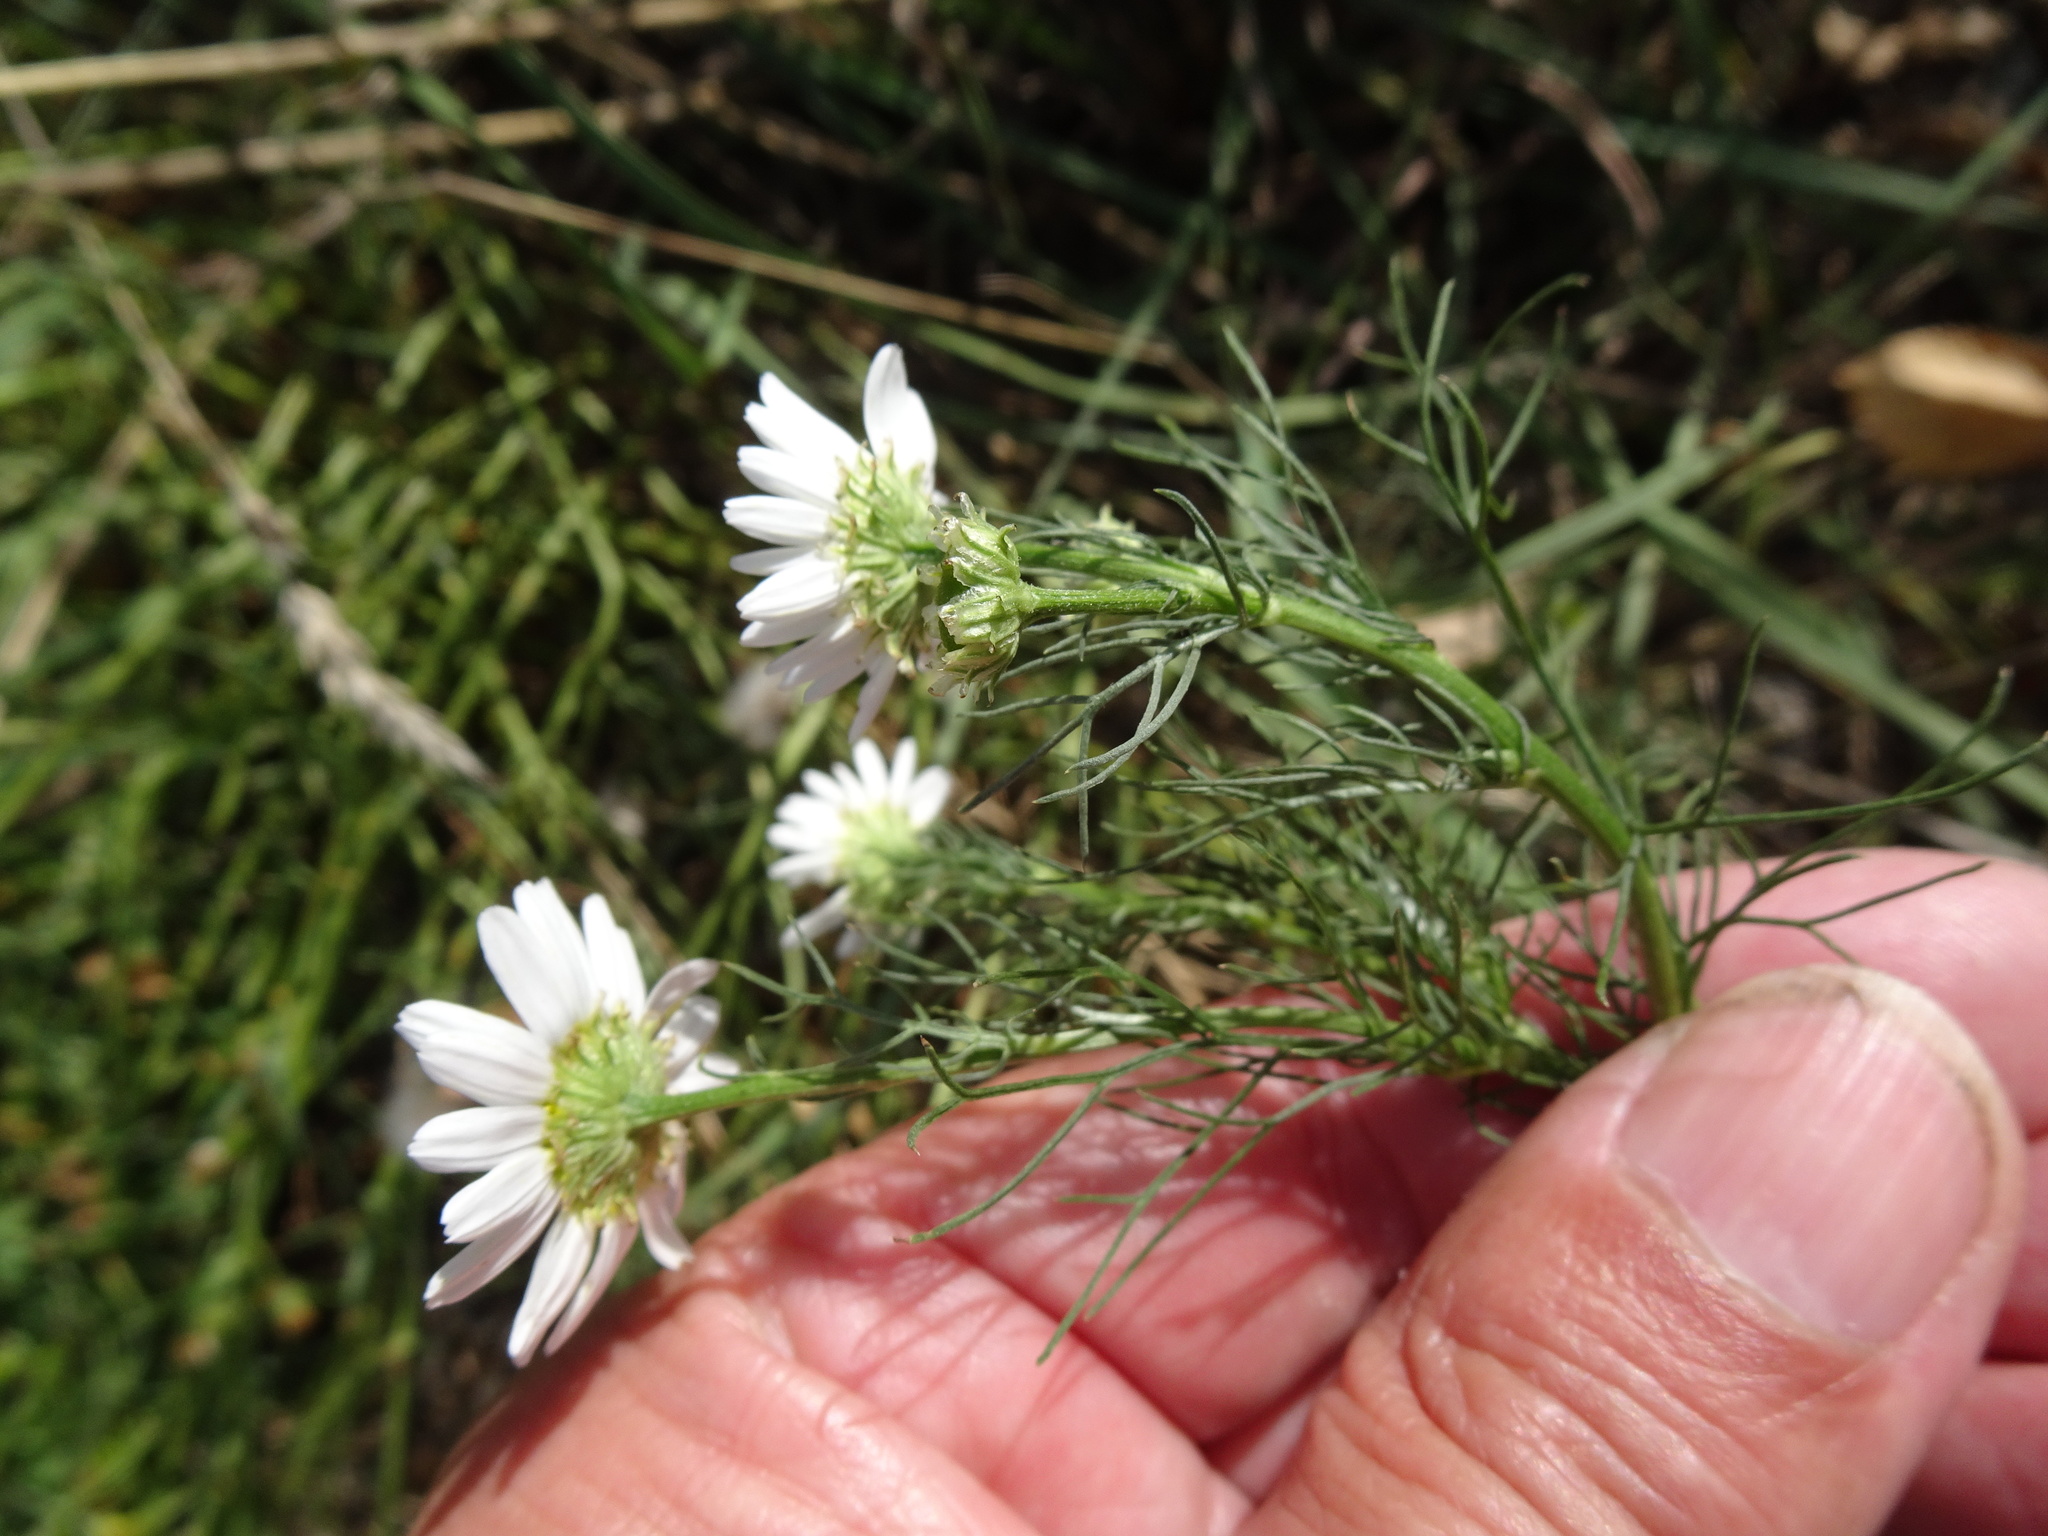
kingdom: Plantae
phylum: Tracheophyta
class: Magnoliopsida
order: Asterales
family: Asteraceae
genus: Tripleurospermum
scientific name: Tripleurospermum inodorum
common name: Scentless mayweed
